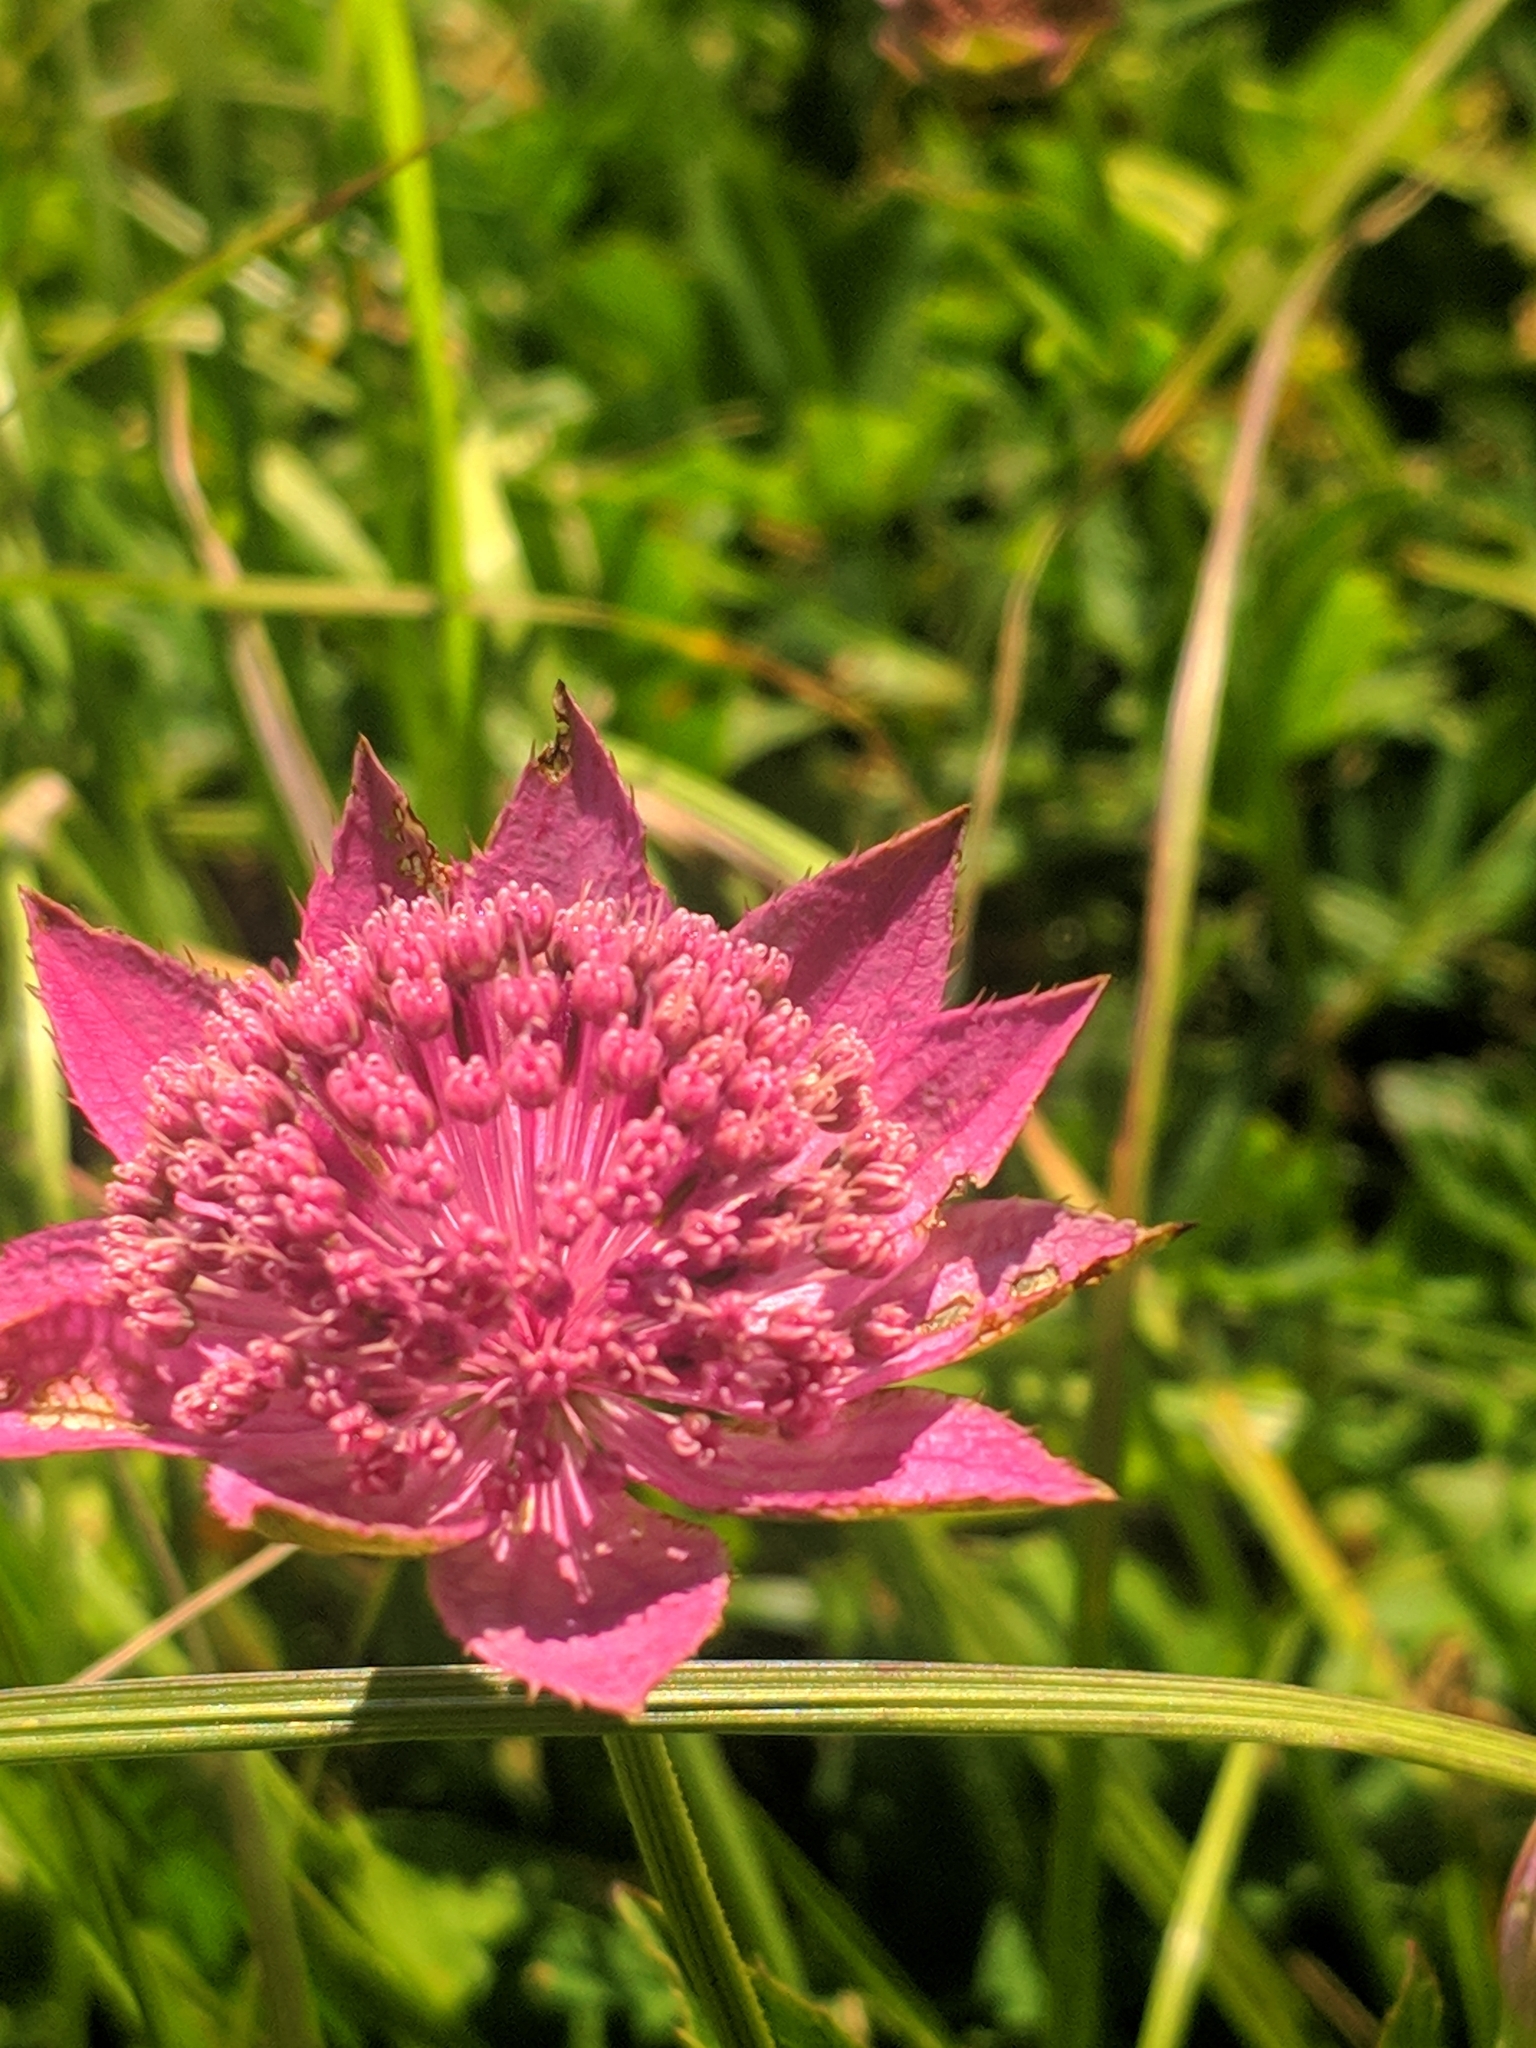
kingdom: Plantae
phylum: Tracheophyta
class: Magnoliopsida
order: Apiales
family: Apiaceae
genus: Astrantia
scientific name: Astrantia maxima
